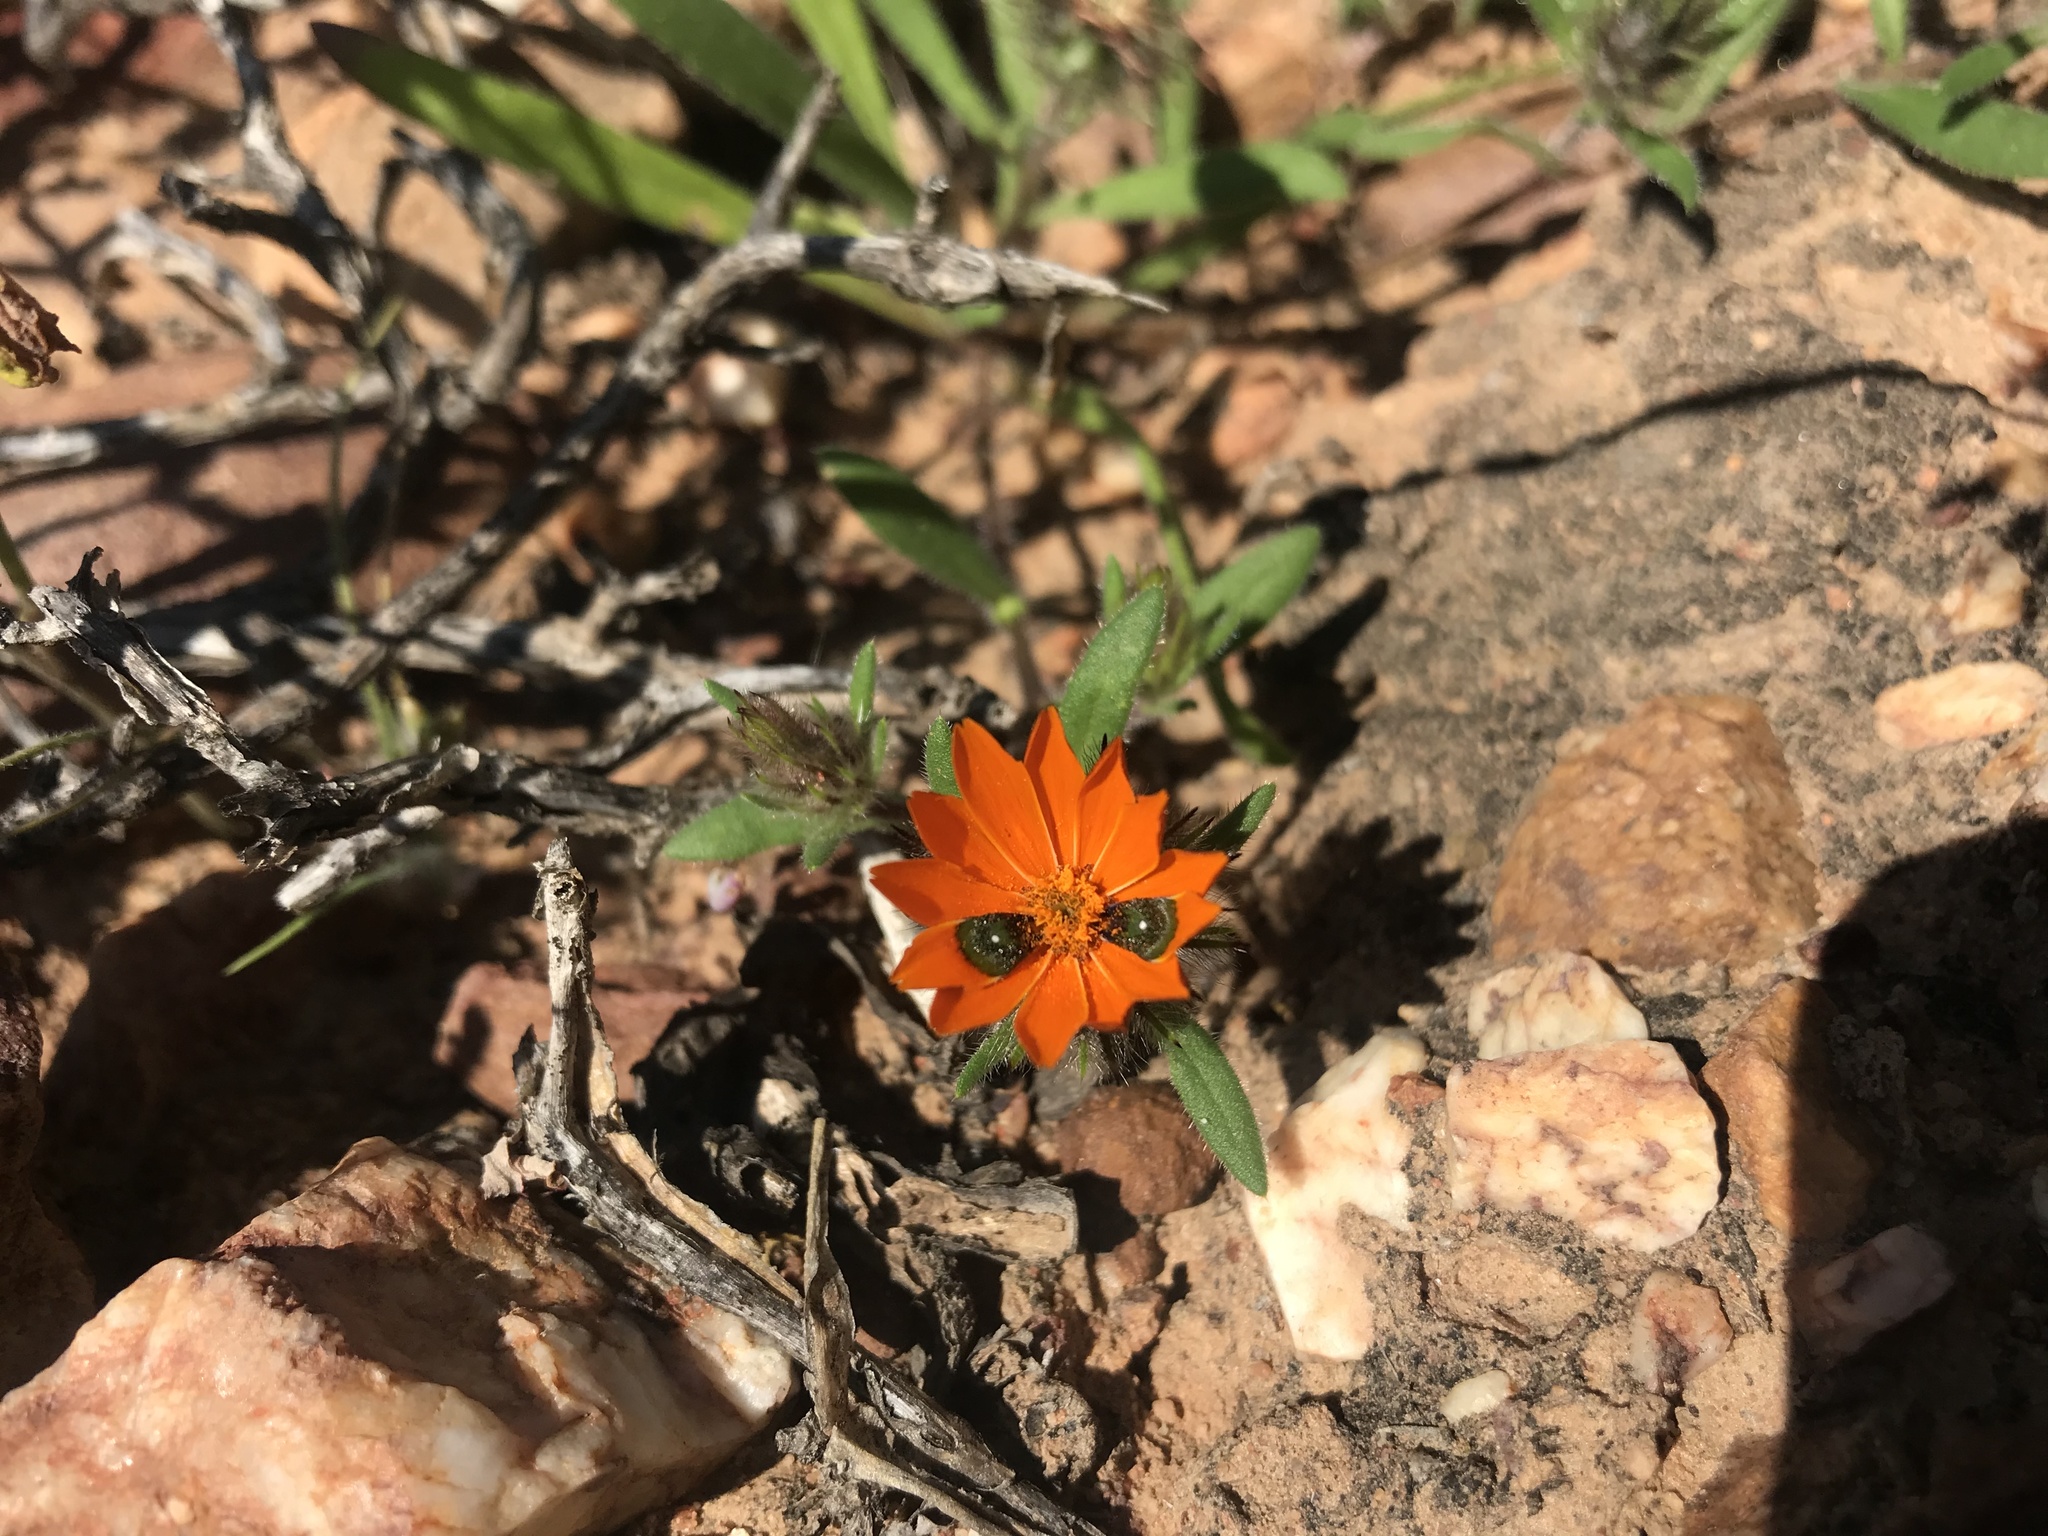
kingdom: Plantae
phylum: Tracheophyta
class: Magnoliopsida
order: Asterales
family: Asteraceae
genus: Gorteria
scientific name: Gorteria diffusa
